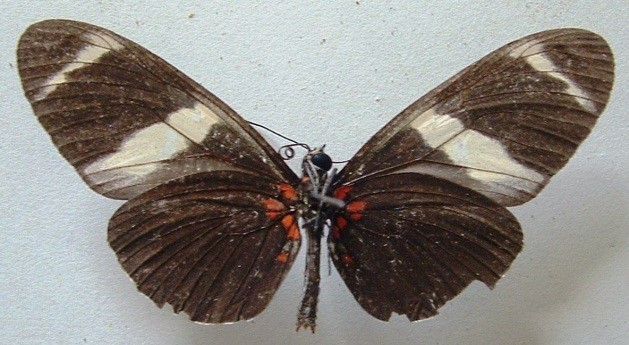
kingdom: Animalia
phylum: Arthropoda
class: Insecta
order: Lepidoptera
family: Nymphalidae
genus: Heliconius
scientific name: Heliconius sara
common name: Sara longwing
